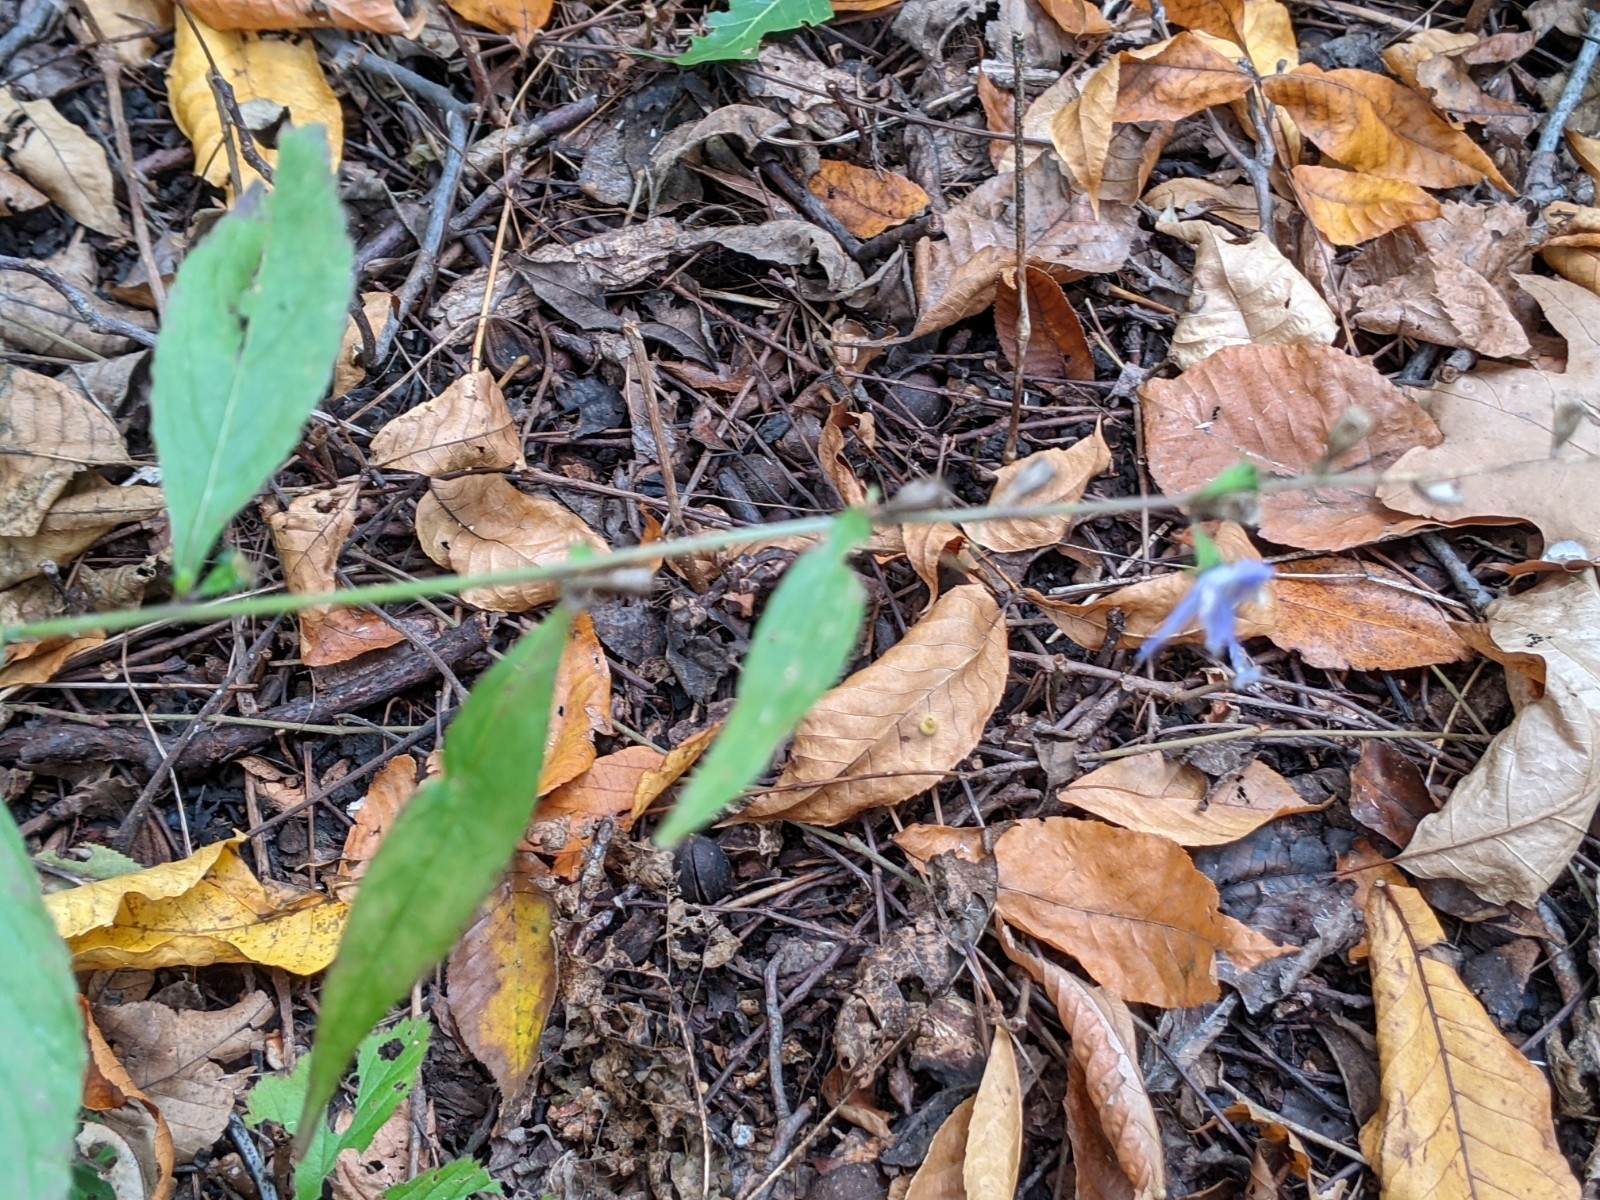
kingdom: Plantae
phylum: Tracheophyta
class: Magnoliopsida
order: Asterales
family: Campanulaceae
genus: Campanulastrum
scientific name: Campanulastrum americanum
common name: American bellflower
